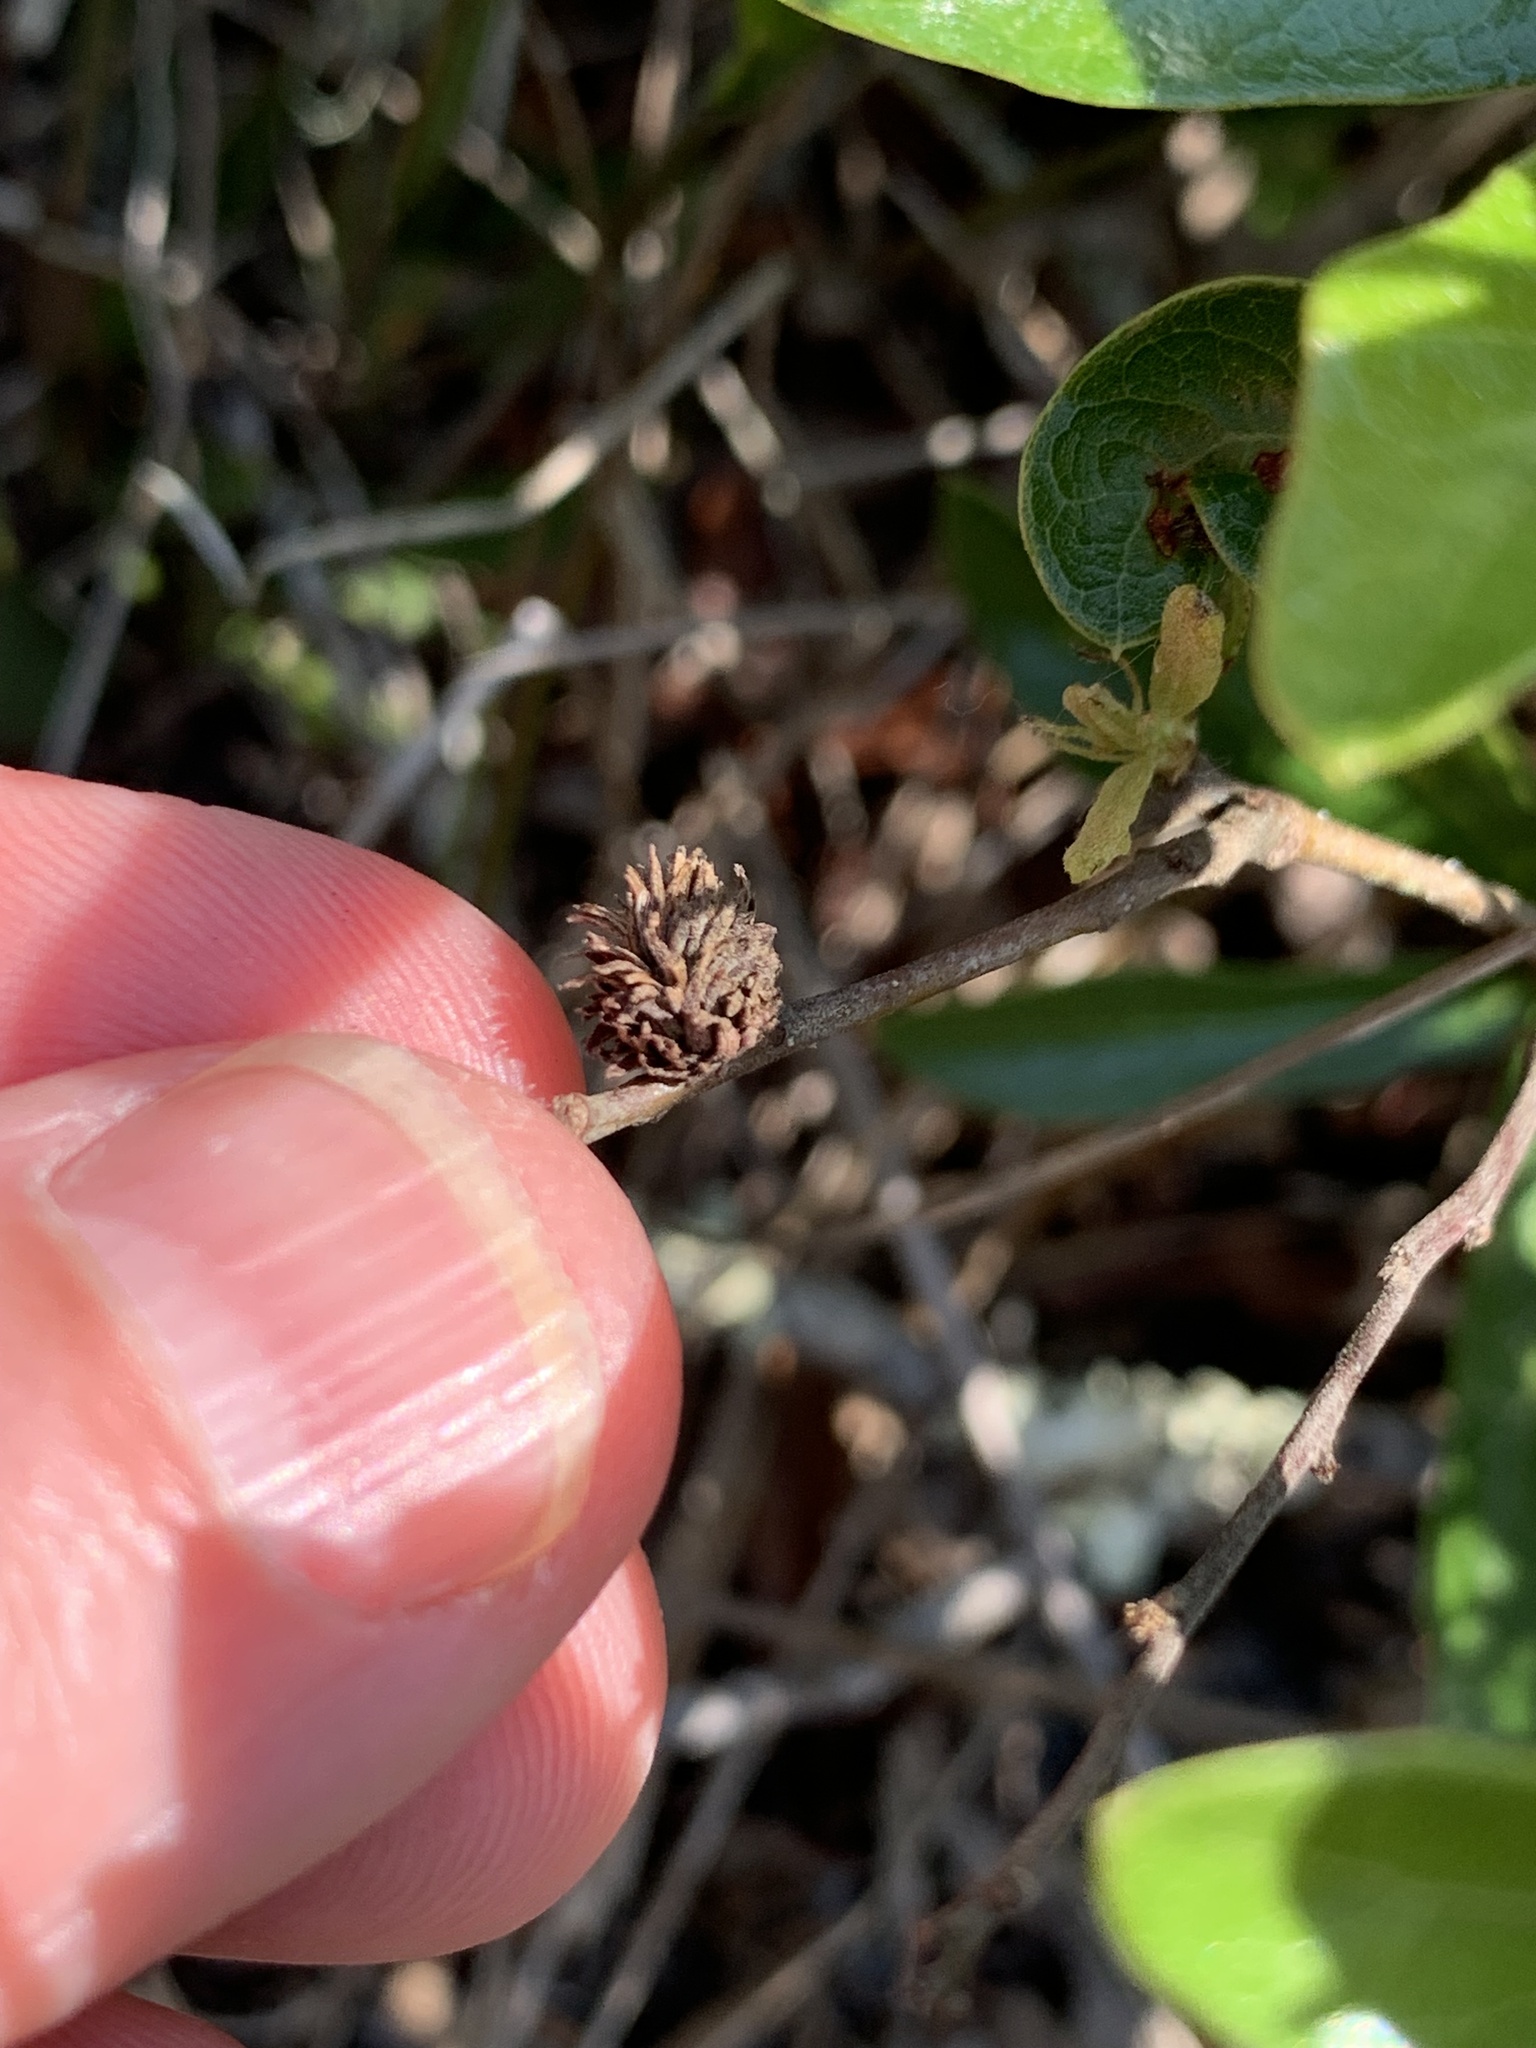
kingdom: Animalia
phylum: Arthropoda
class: Insecta
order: Hymenoptera
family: Cynipidae
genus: Andricus
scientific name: Andricus quercusfoliatus
